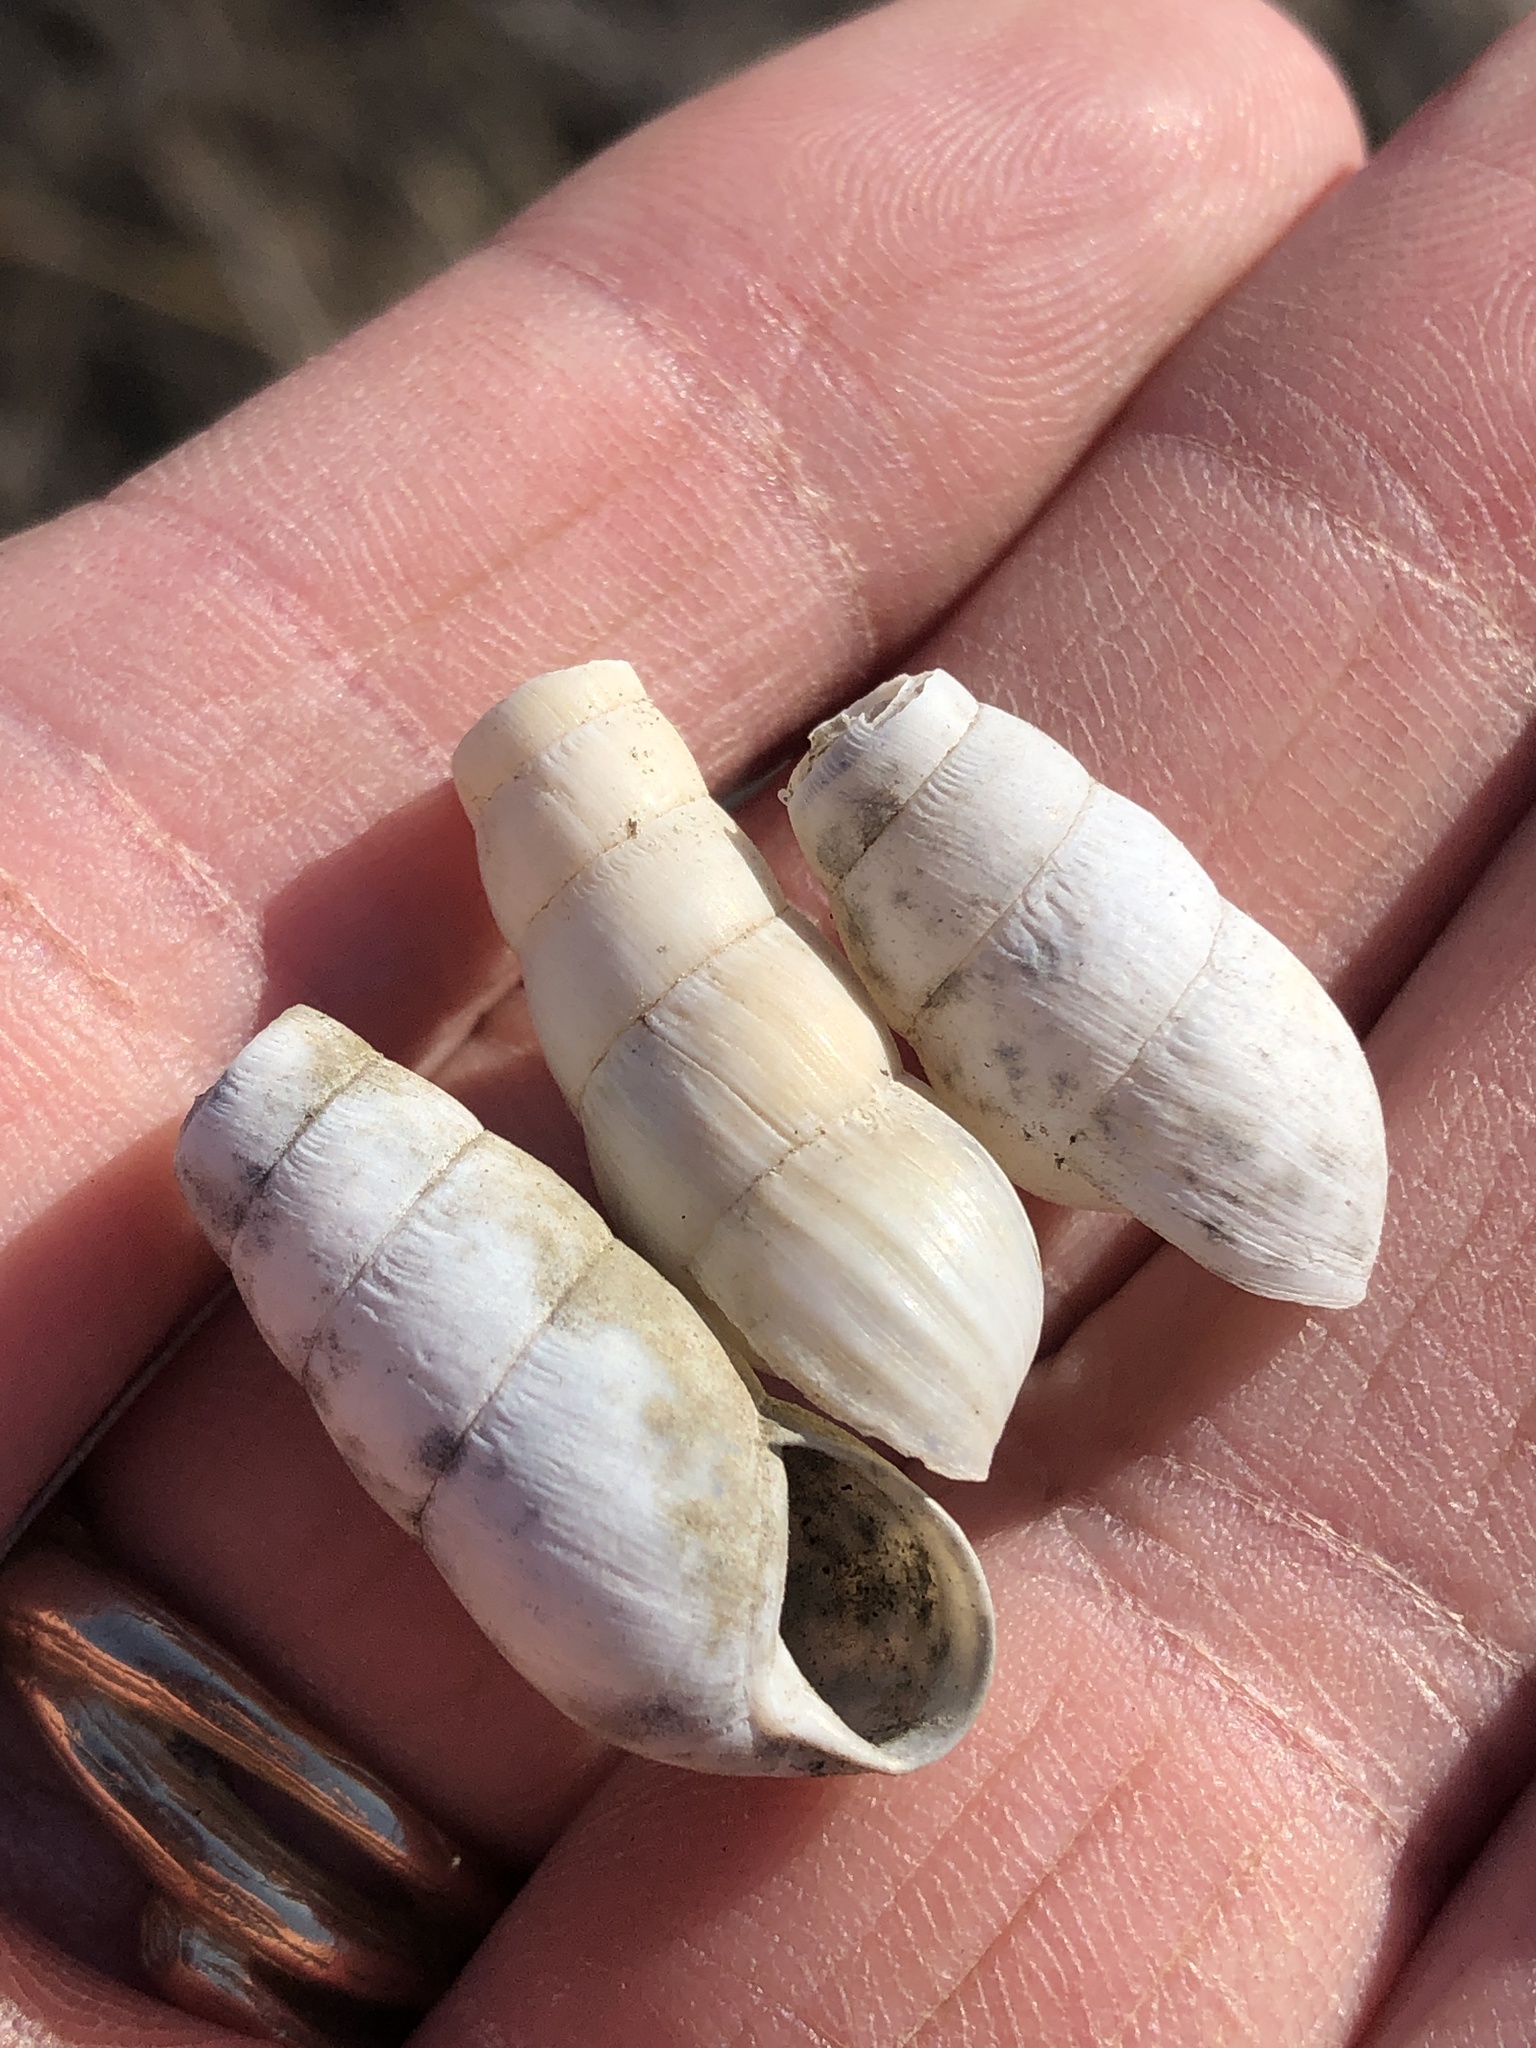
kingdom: Animalia
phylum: Mollusca
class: Gastropoda
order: Stylommatophora
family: Achatinidae
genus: Rumina
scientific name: Rumina decollata
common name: Decollate snail
